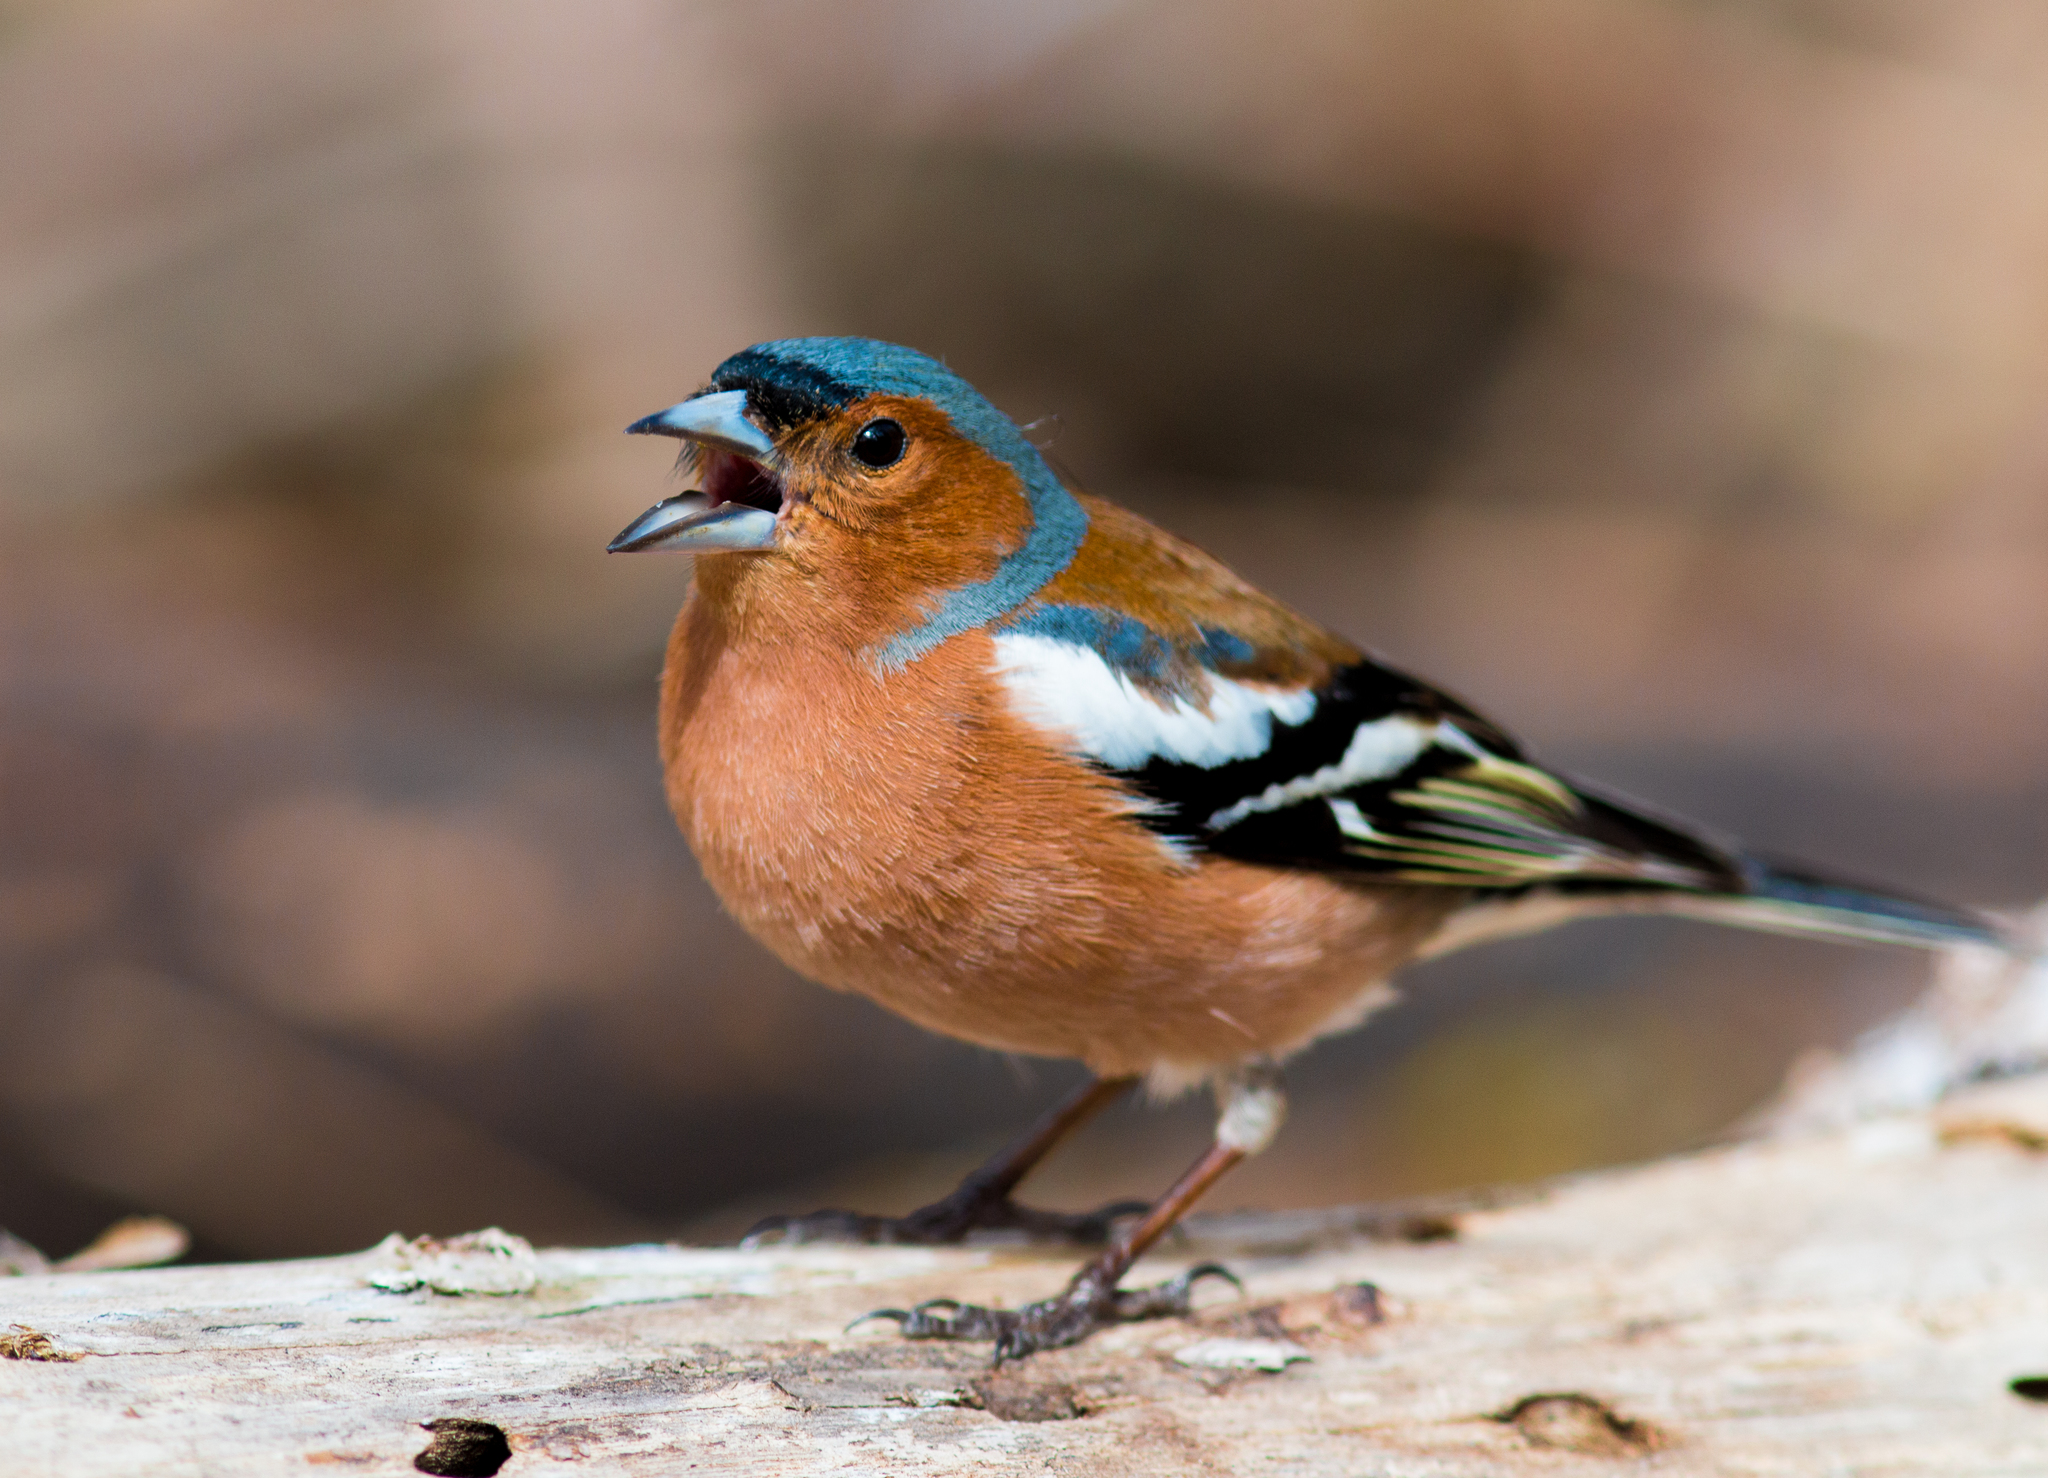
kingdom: Animalia
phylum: Chordata
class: Aves
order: Passeriformes
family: Fringillidae
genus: Fringilla
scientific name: Fringilla coelebs
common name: Common chaffinch
